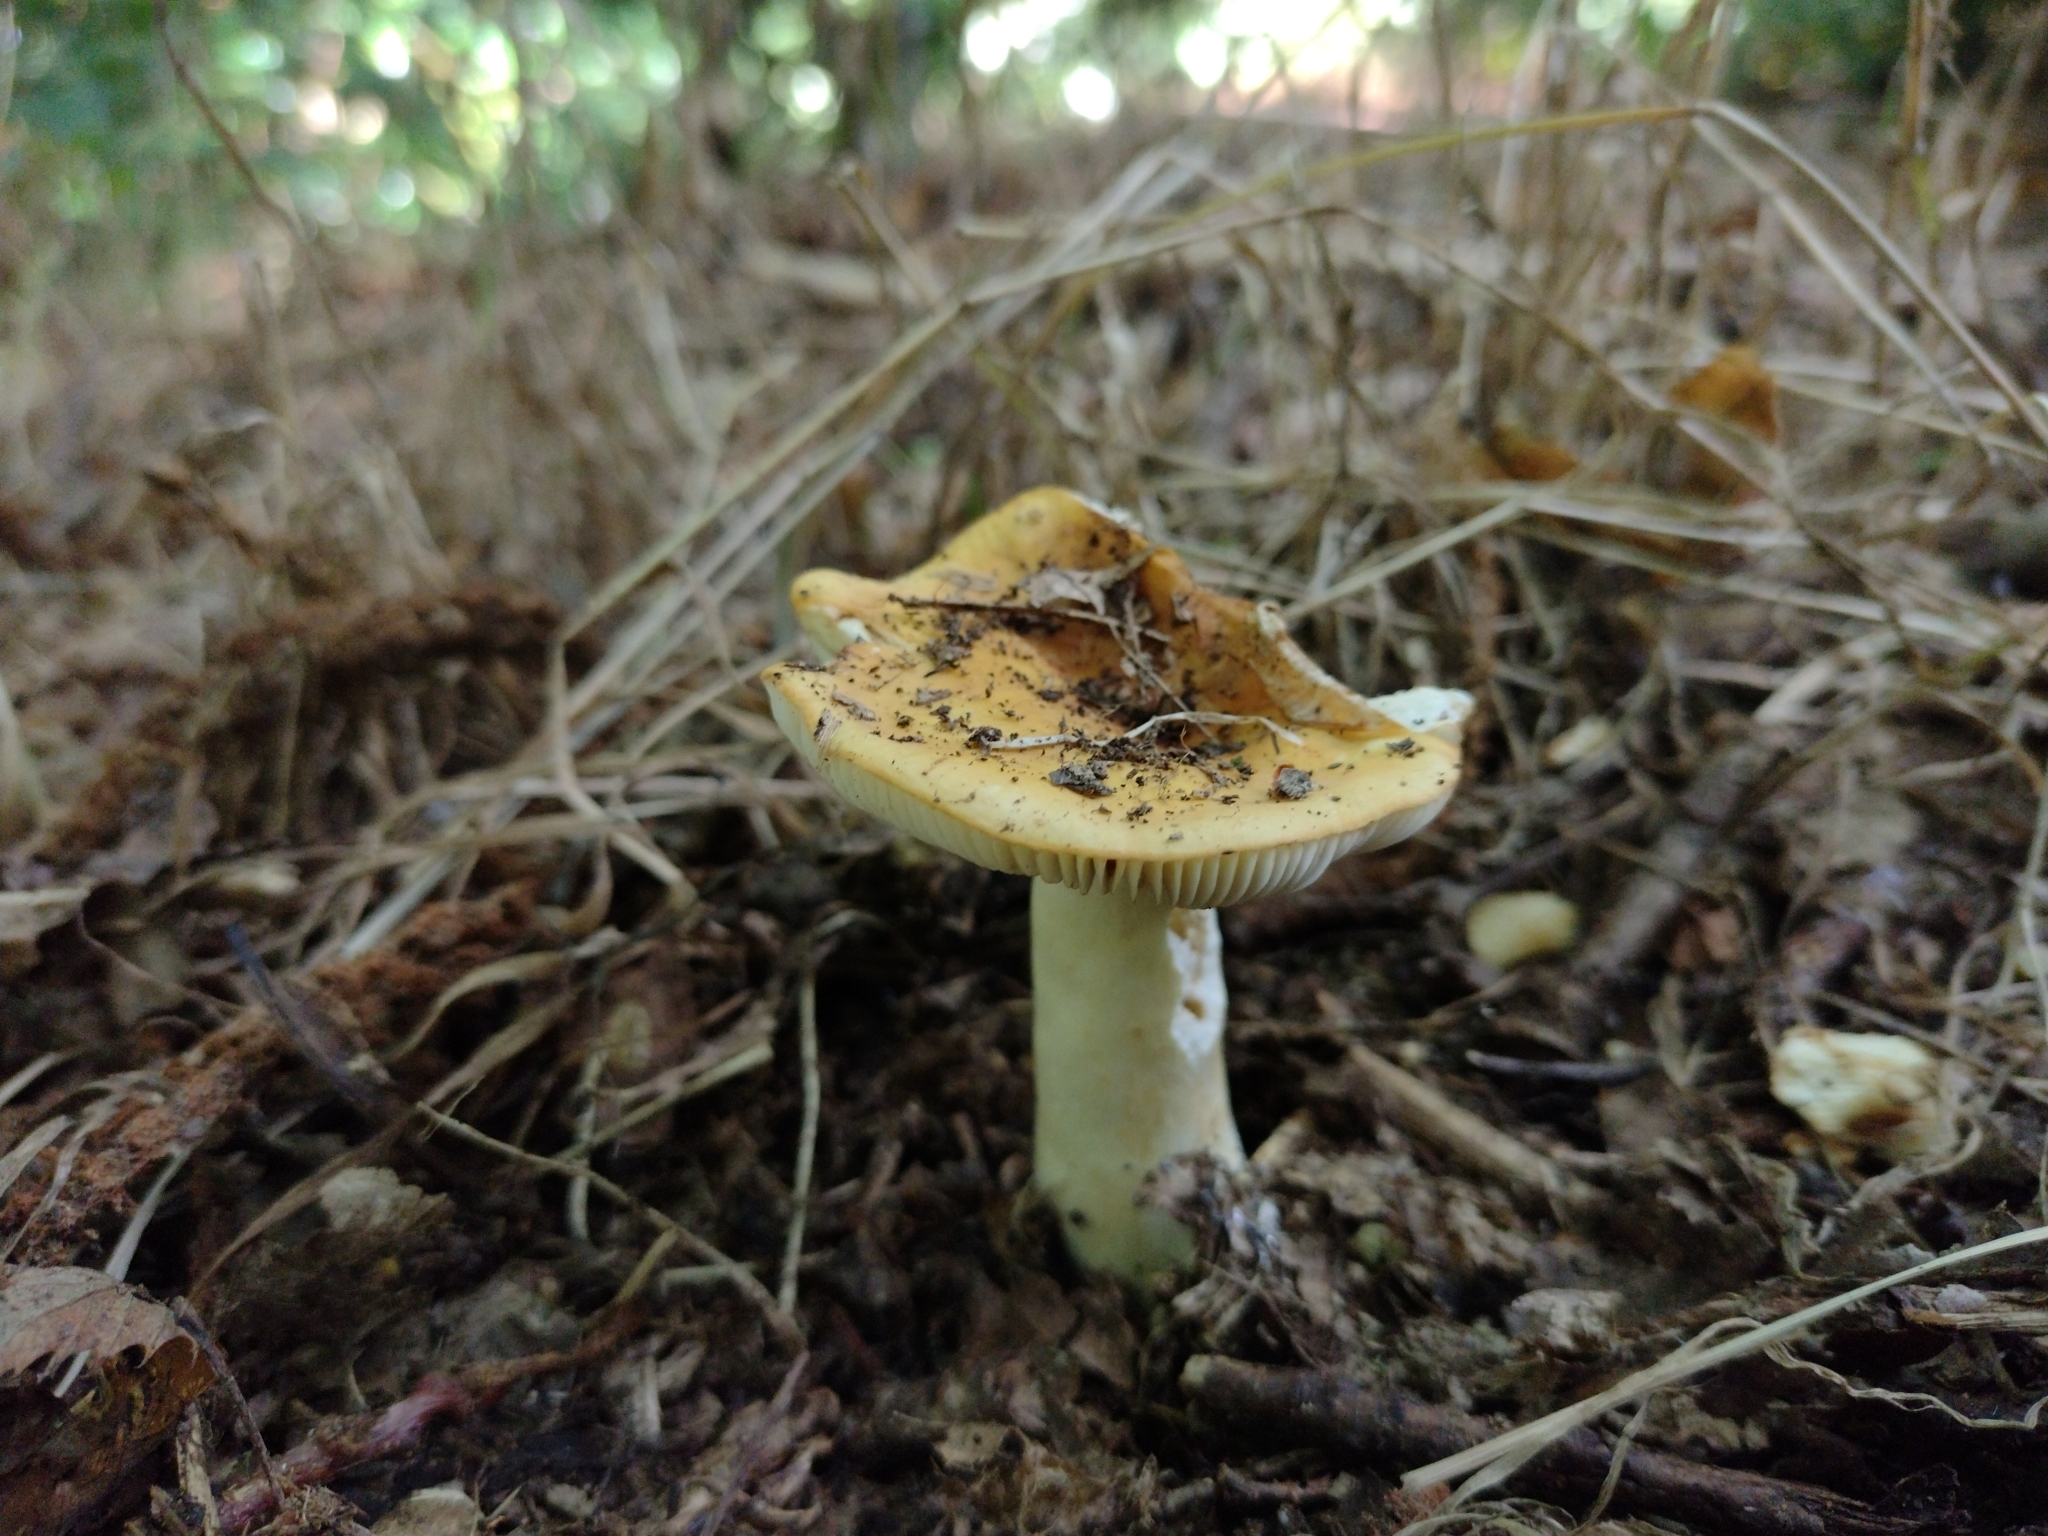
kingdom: Fungi
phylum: Basidiomycota
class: Agaricomycetes
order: Russulales
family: Russulaceae
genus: Russula
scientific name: Russula ochroleuca
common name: Common yellow russula
